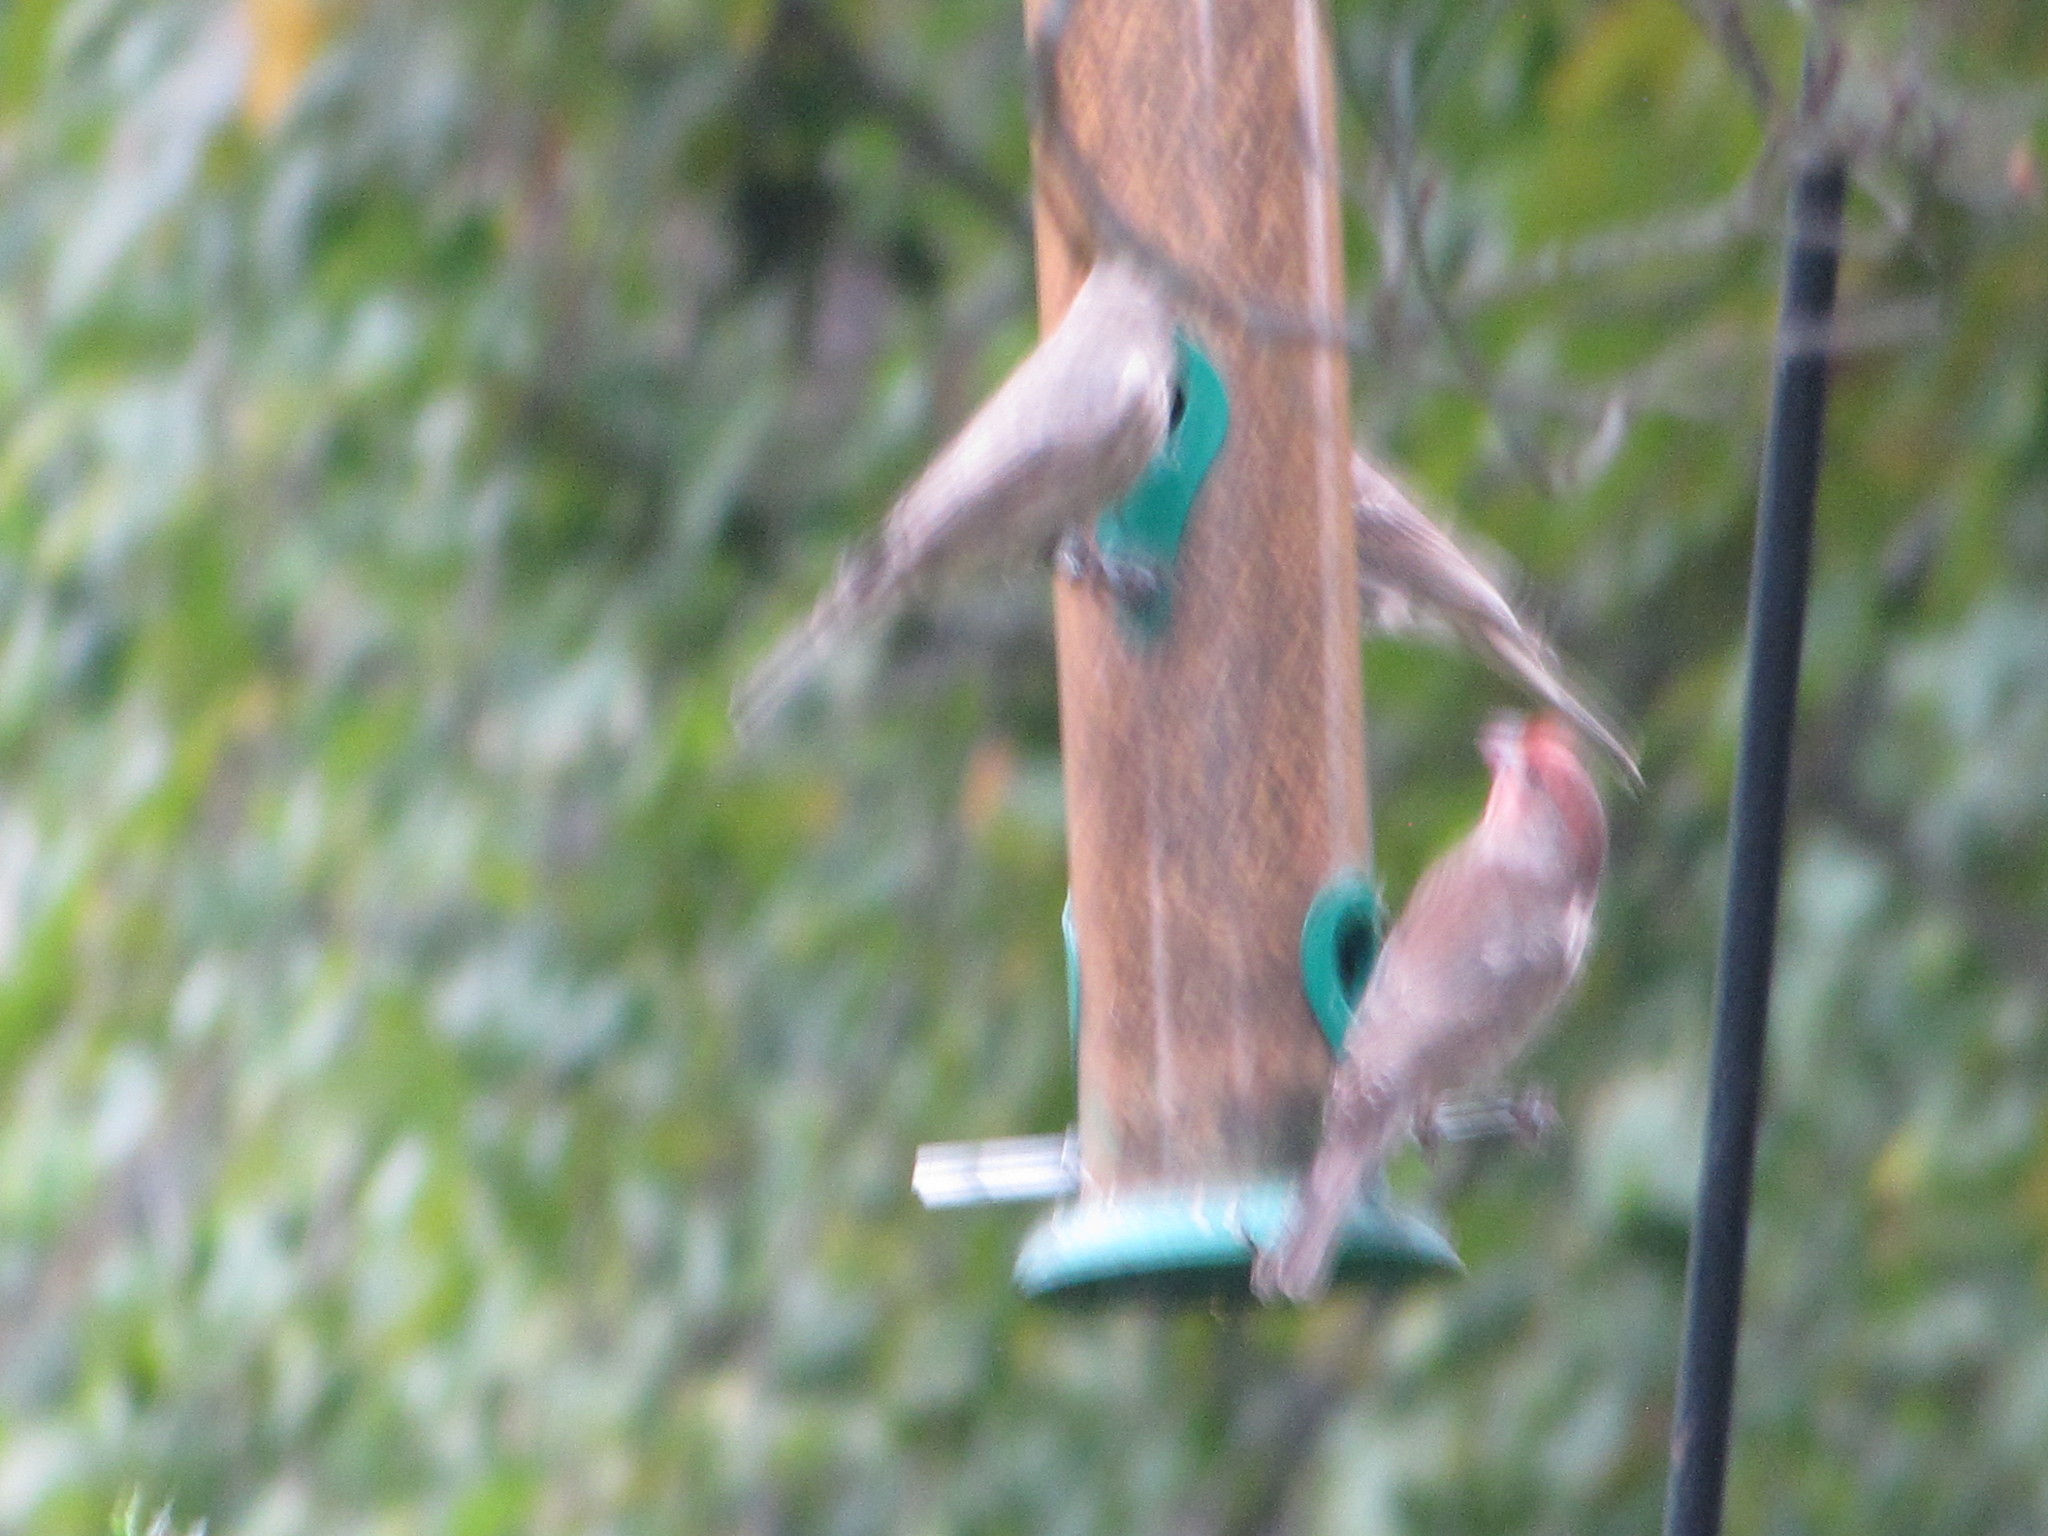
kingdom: Animalia
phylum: Chordata
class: Aves
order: Passeriformes
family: Fringillidae
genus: Haemorhous
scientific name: Haemorhous mexicanus
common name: House finch
